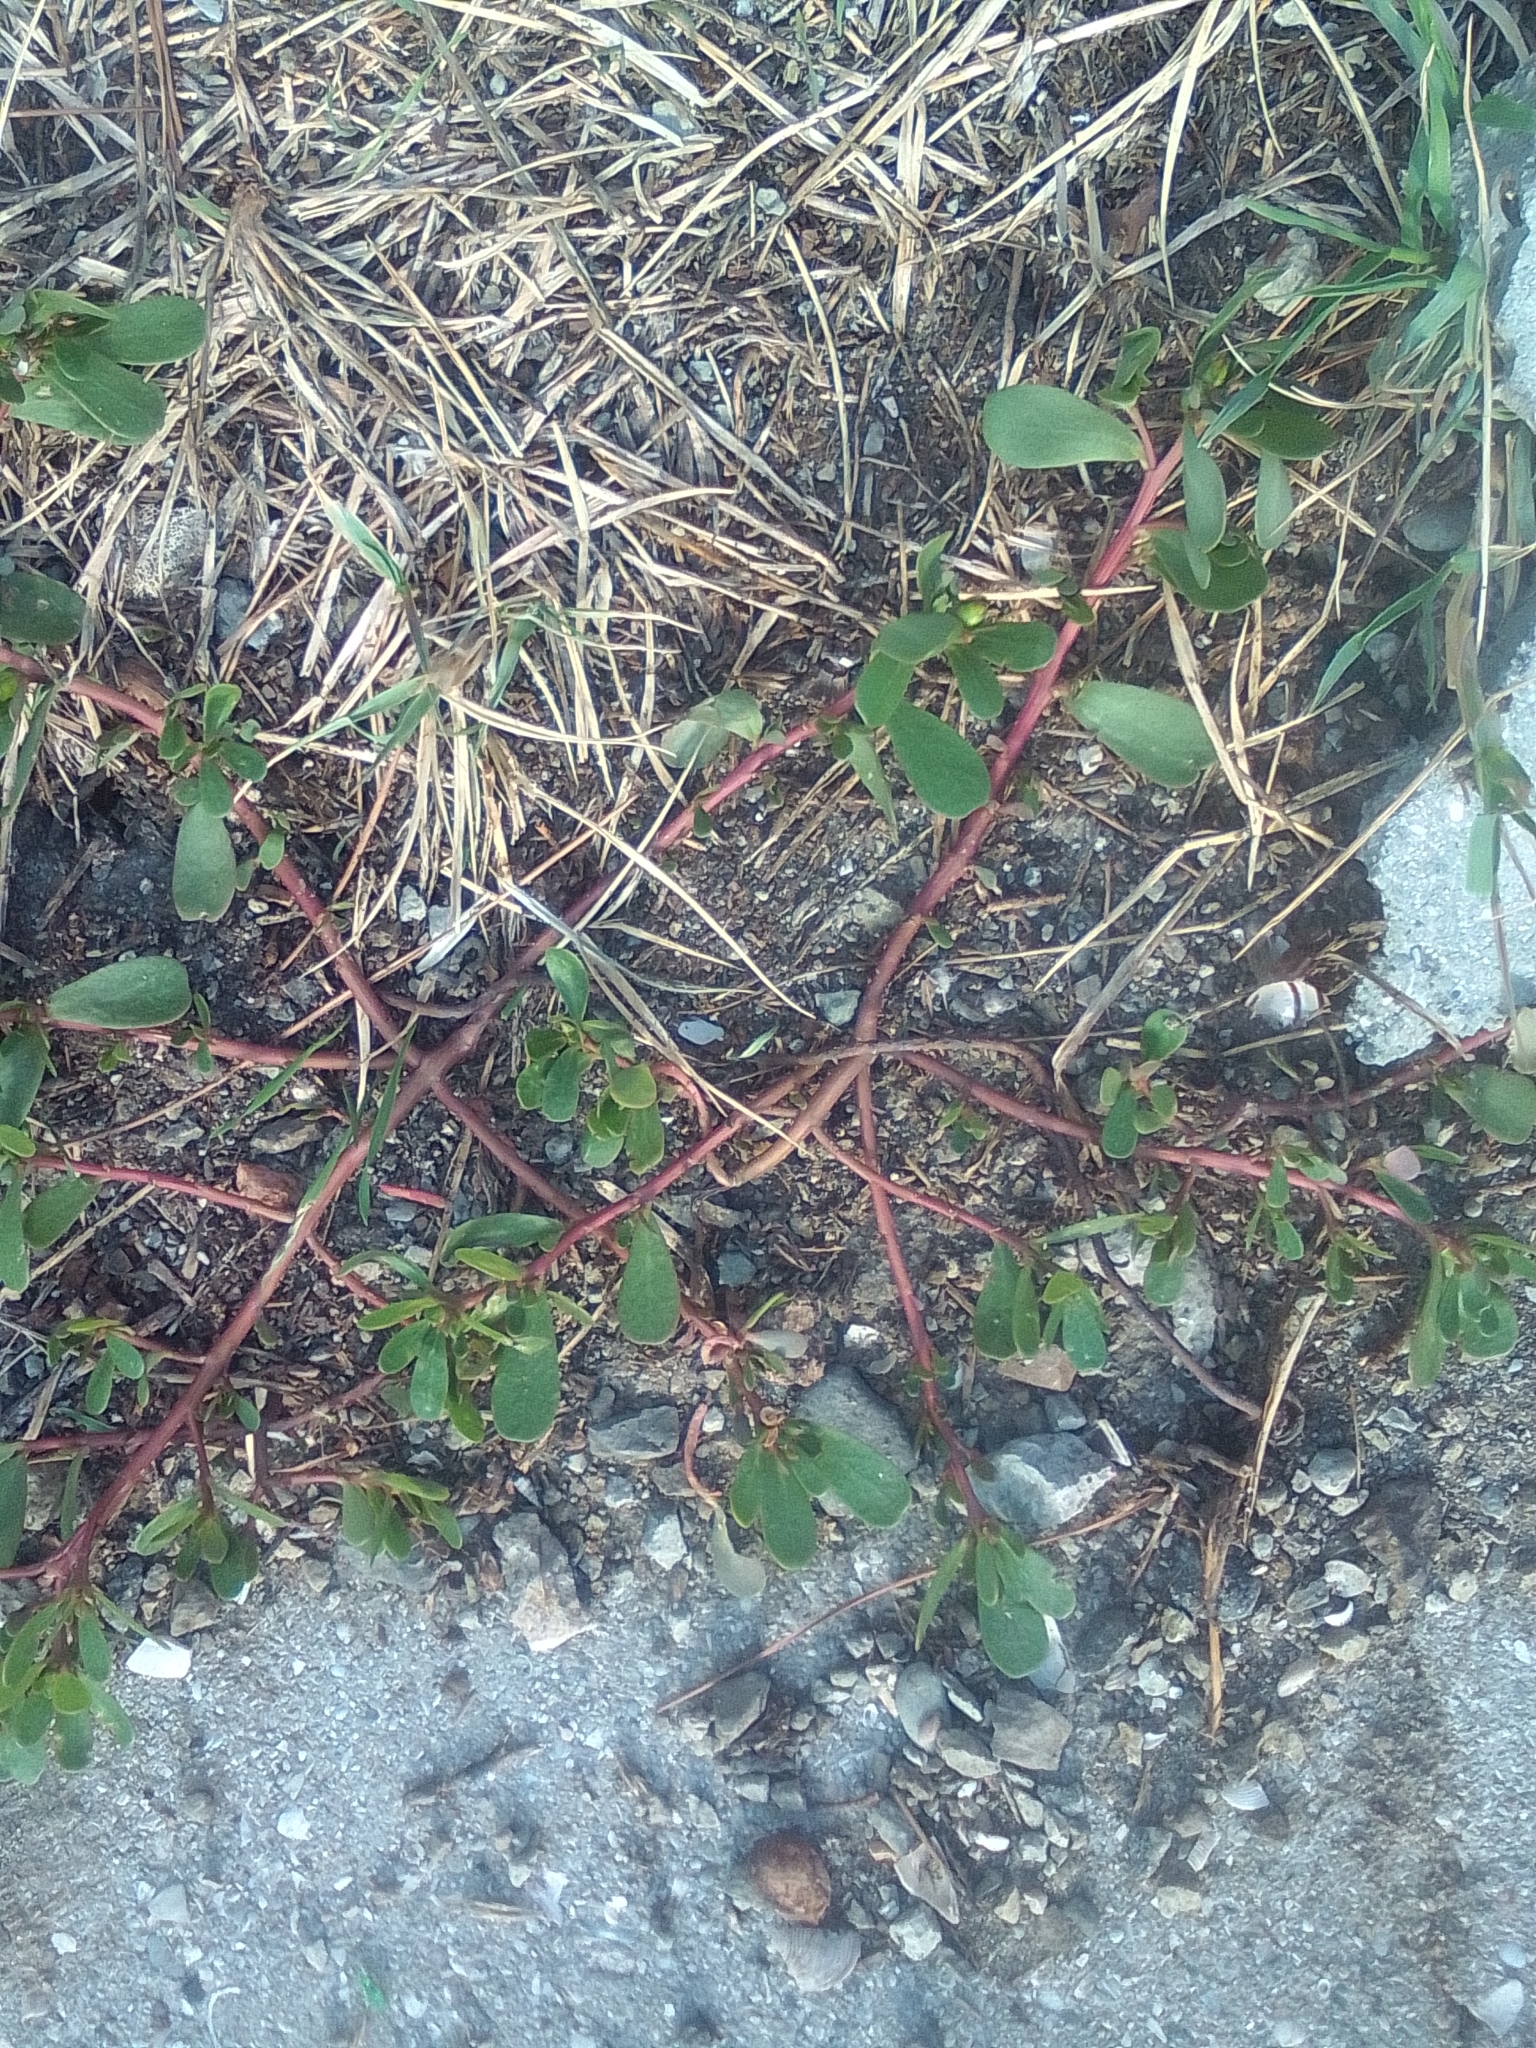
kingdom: Plantae
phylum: Tracheophyta
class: Magnoliopsida
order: Caryophyllales
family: Portulacaceae
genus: Portulaca
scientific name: Portulaca oleracea
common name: Common purslane
